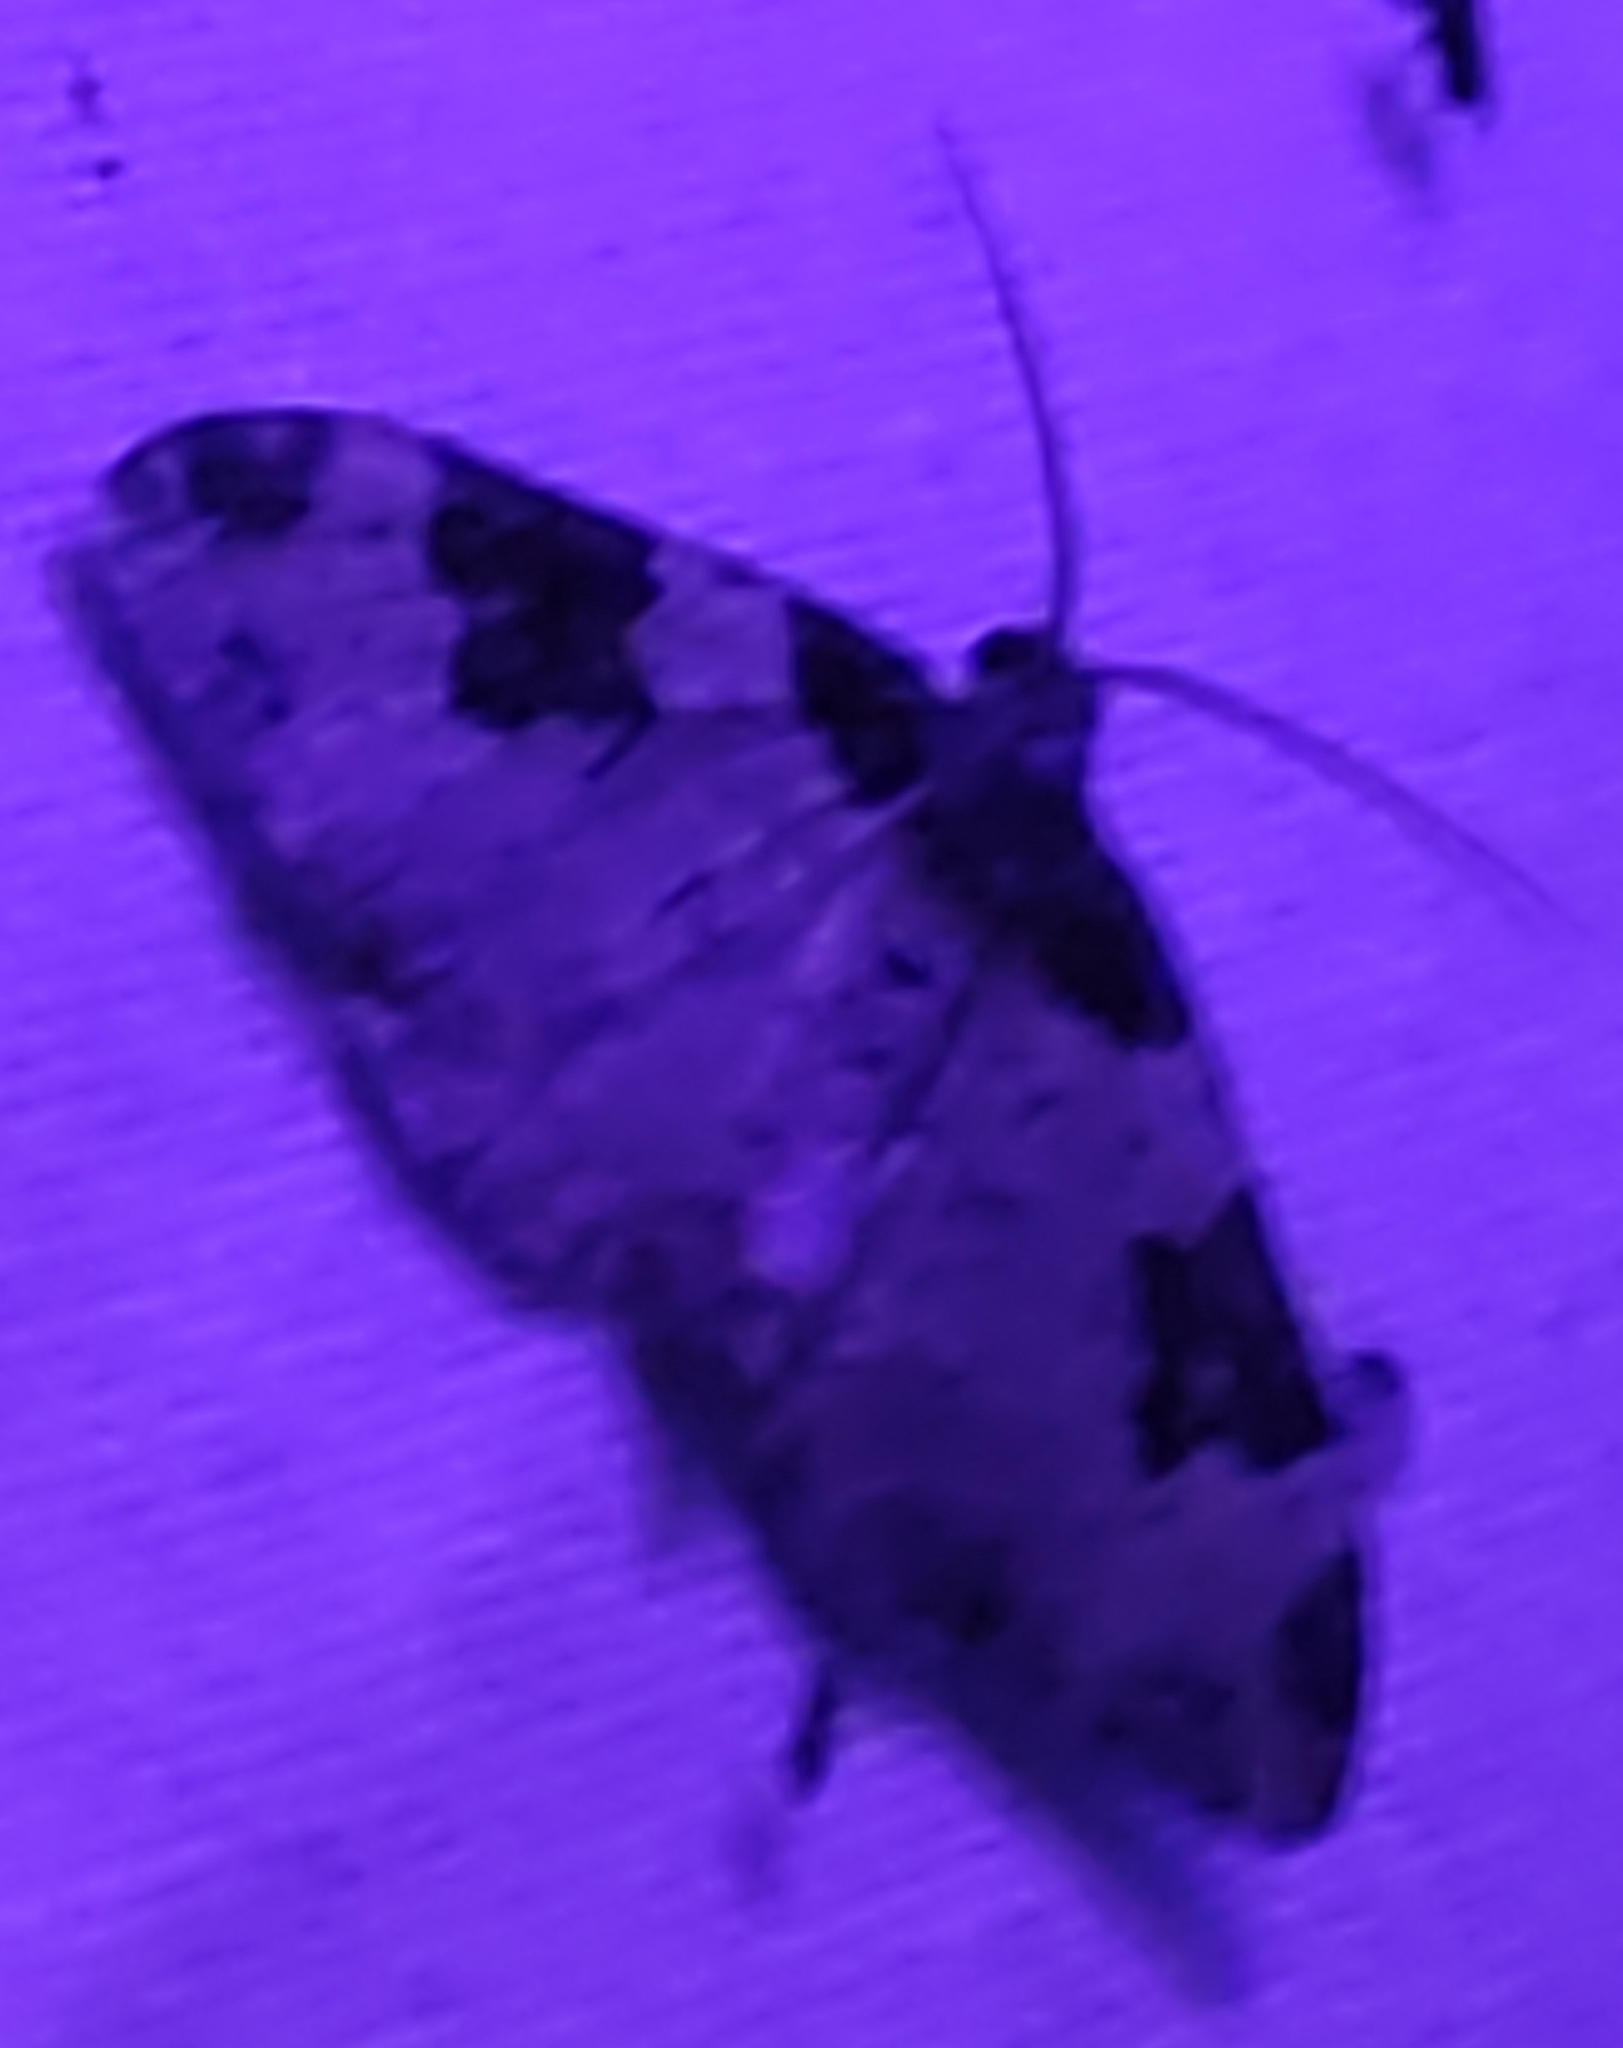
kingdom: Animalia
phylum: Arthropoda
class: Insecta
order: Lepidoptera
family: Geometridae
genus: Xanthorhoe
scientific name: Xanthorhoe fluctuata
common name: Garden carpet
